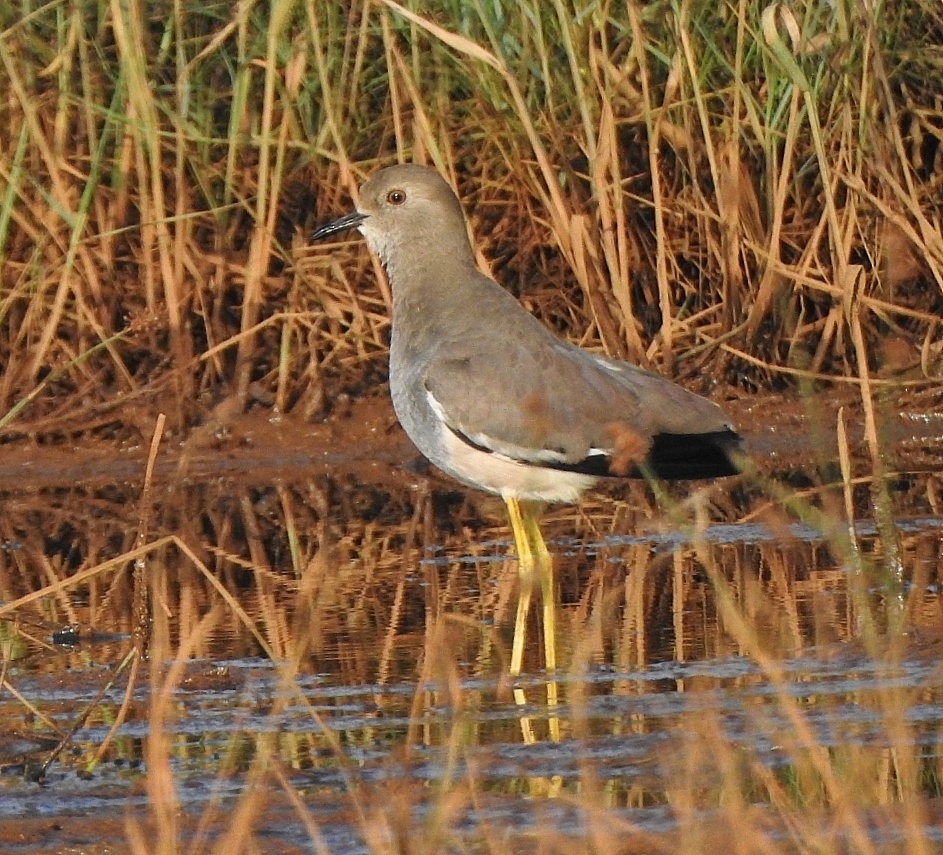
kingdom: Animalia
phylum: Chordata
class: Aves
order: Charadriiformes
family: Charadriidae
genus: Vanellus
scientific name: Vanellus leucurus
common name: White-tailed lapwing
